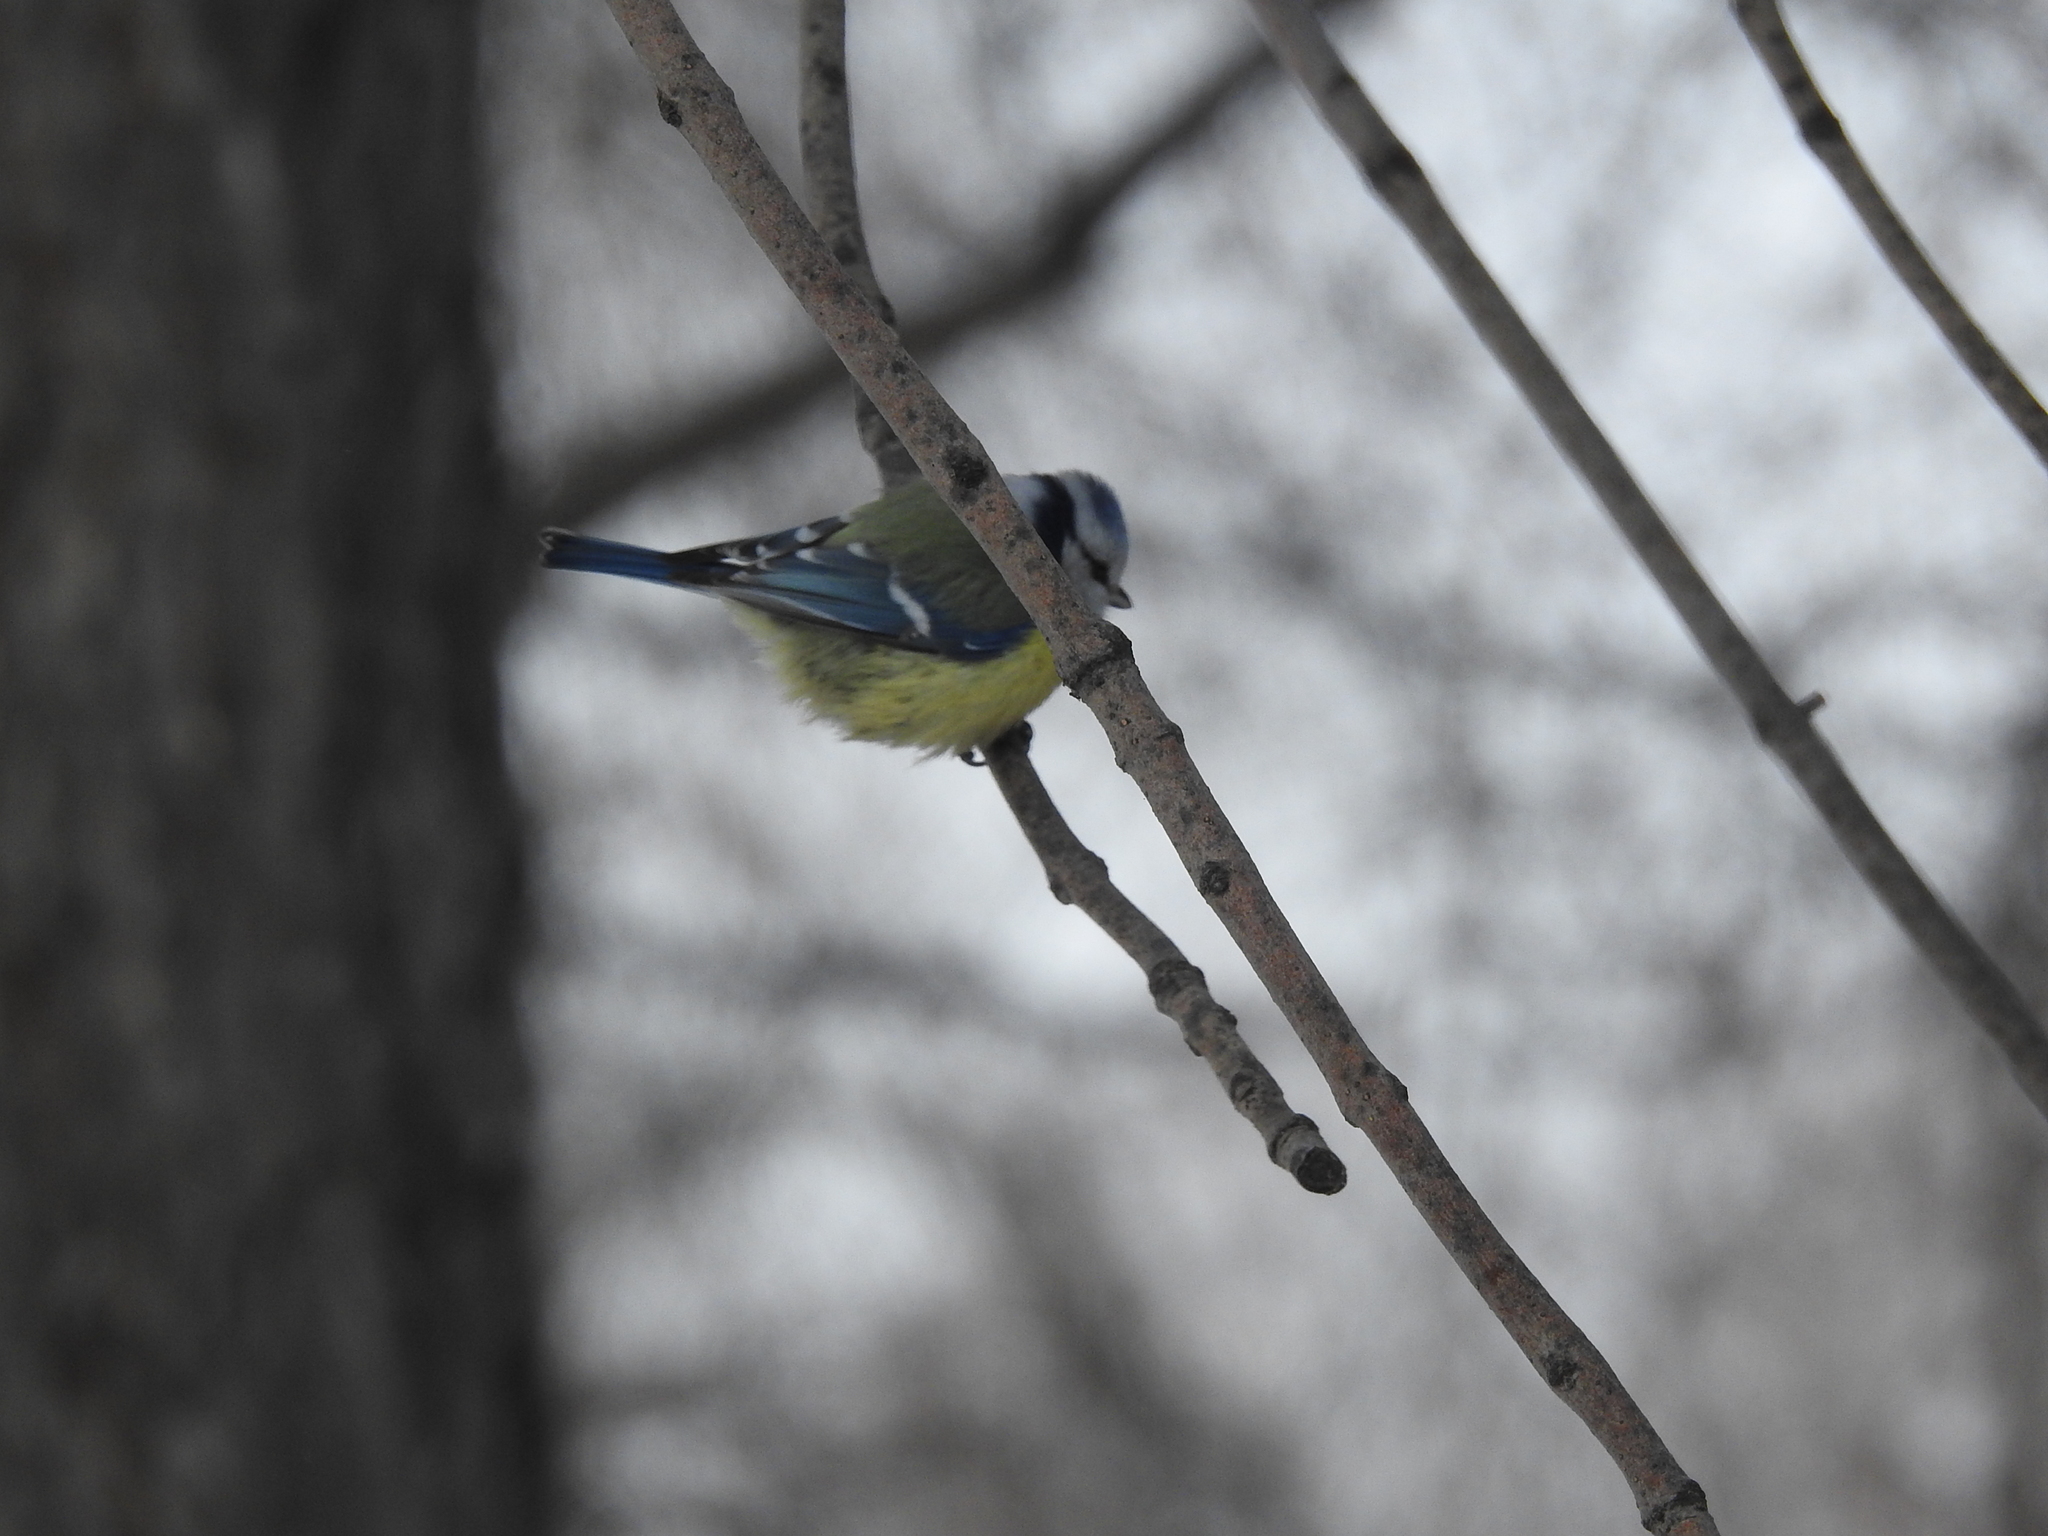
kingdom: Animalia
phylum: Chordata
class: Aves
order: Passeriformes
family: Paridae
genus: Cyanistes
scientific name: Cyanistes caeruleus
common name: Eurasian blue tit
